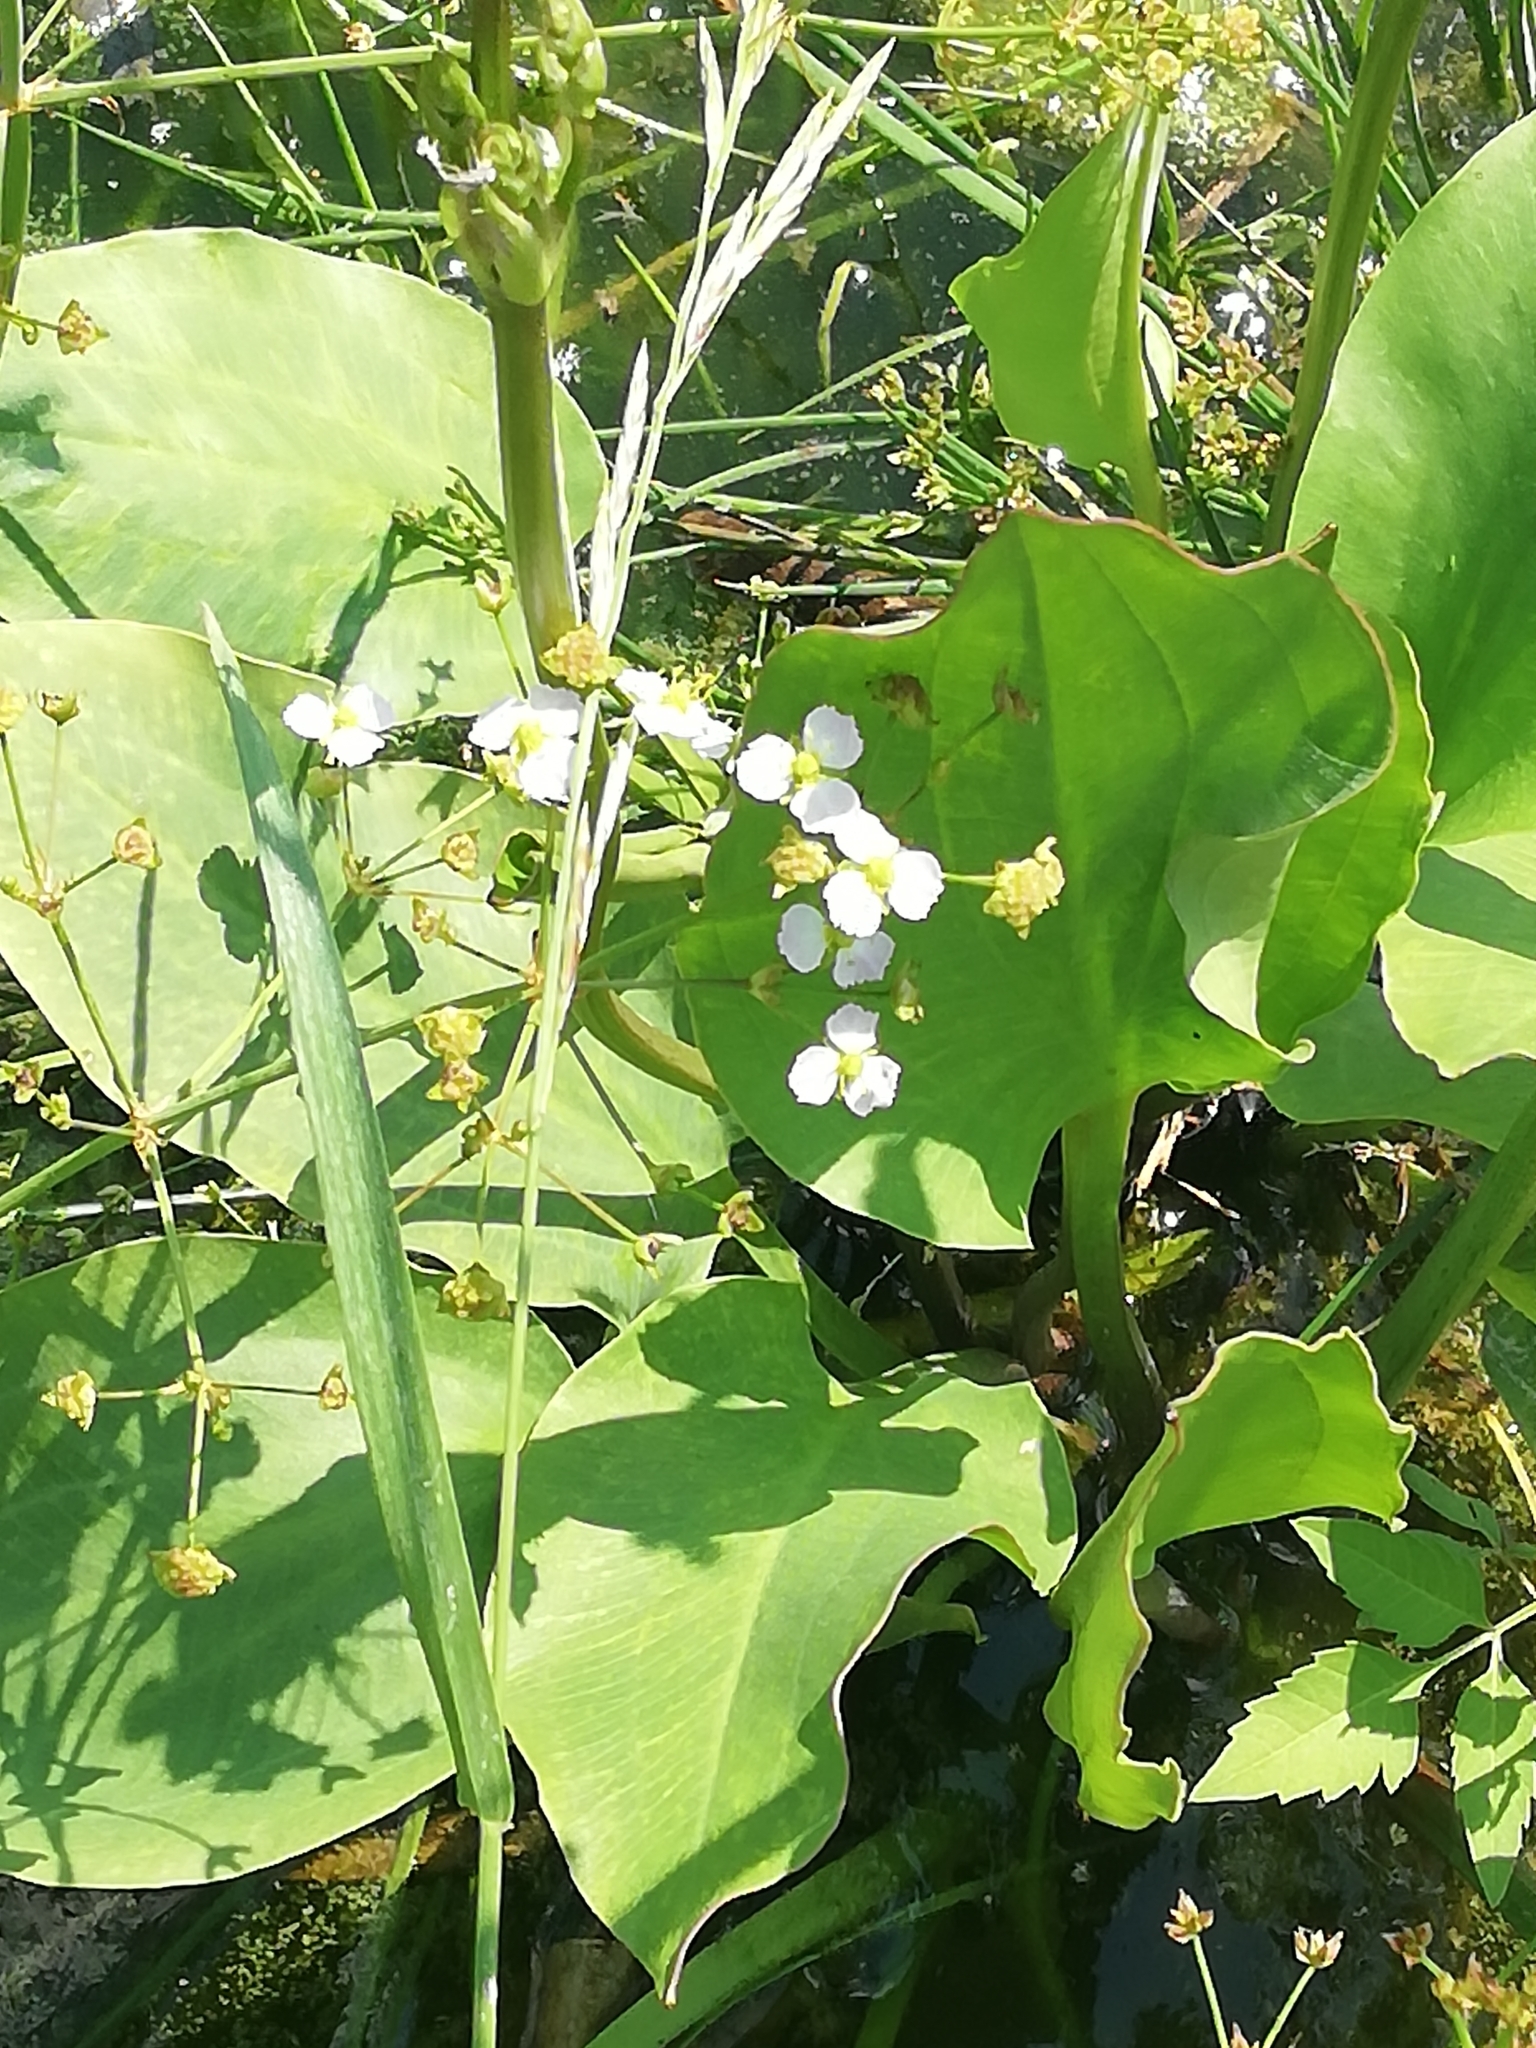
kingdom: Plantae
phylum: Tracheophyta
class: Liliopsida
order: Alismatales
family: Alismataceae
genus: Alisma
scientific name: Alisma plantago-aquatica
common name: Water-plantain
